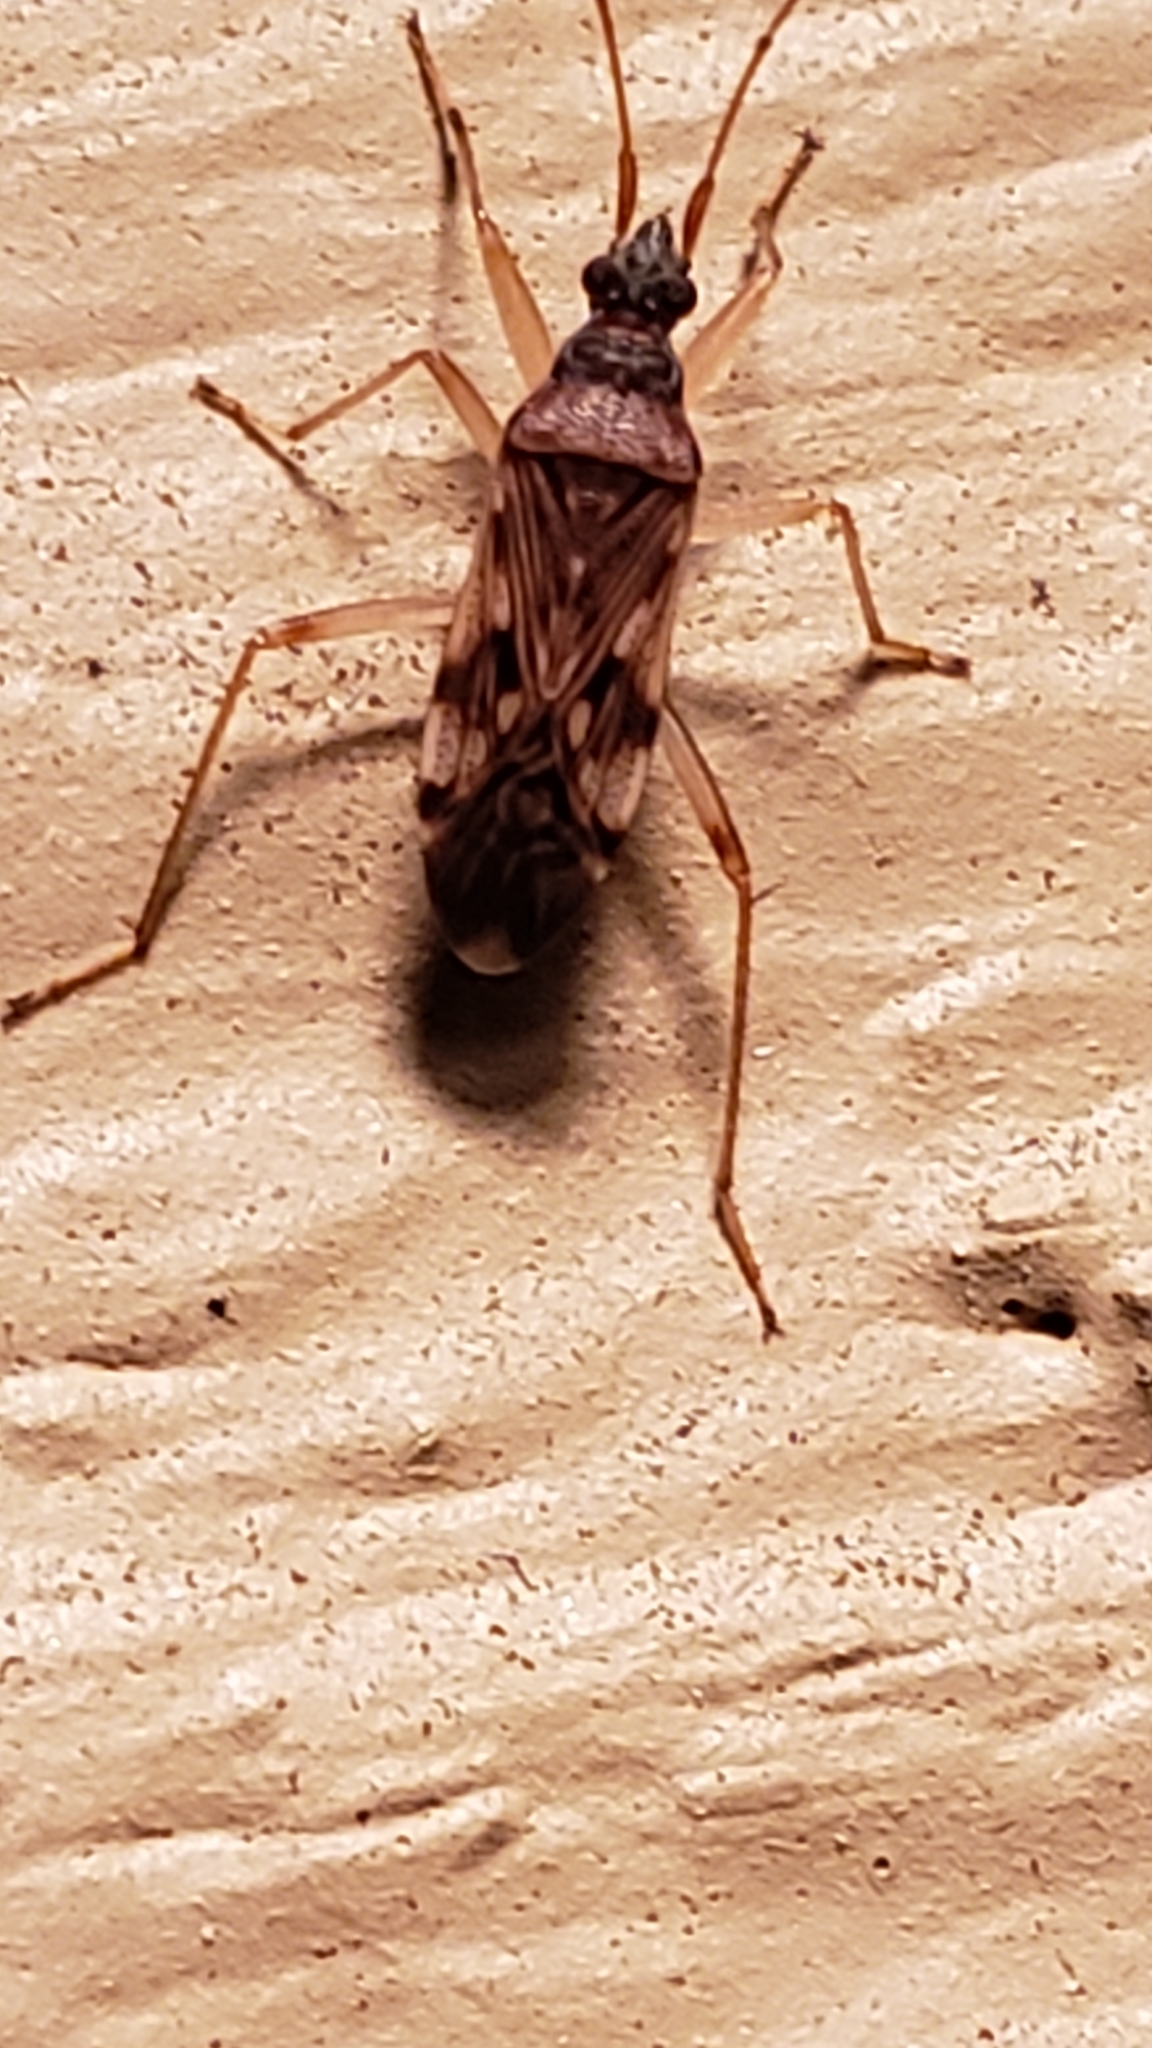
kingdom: Animalia
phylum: Arthropoda
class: Insecta
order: Hemiptera
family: Rhyparochromidae
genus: Ozophora
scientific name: Ozophora picturata
